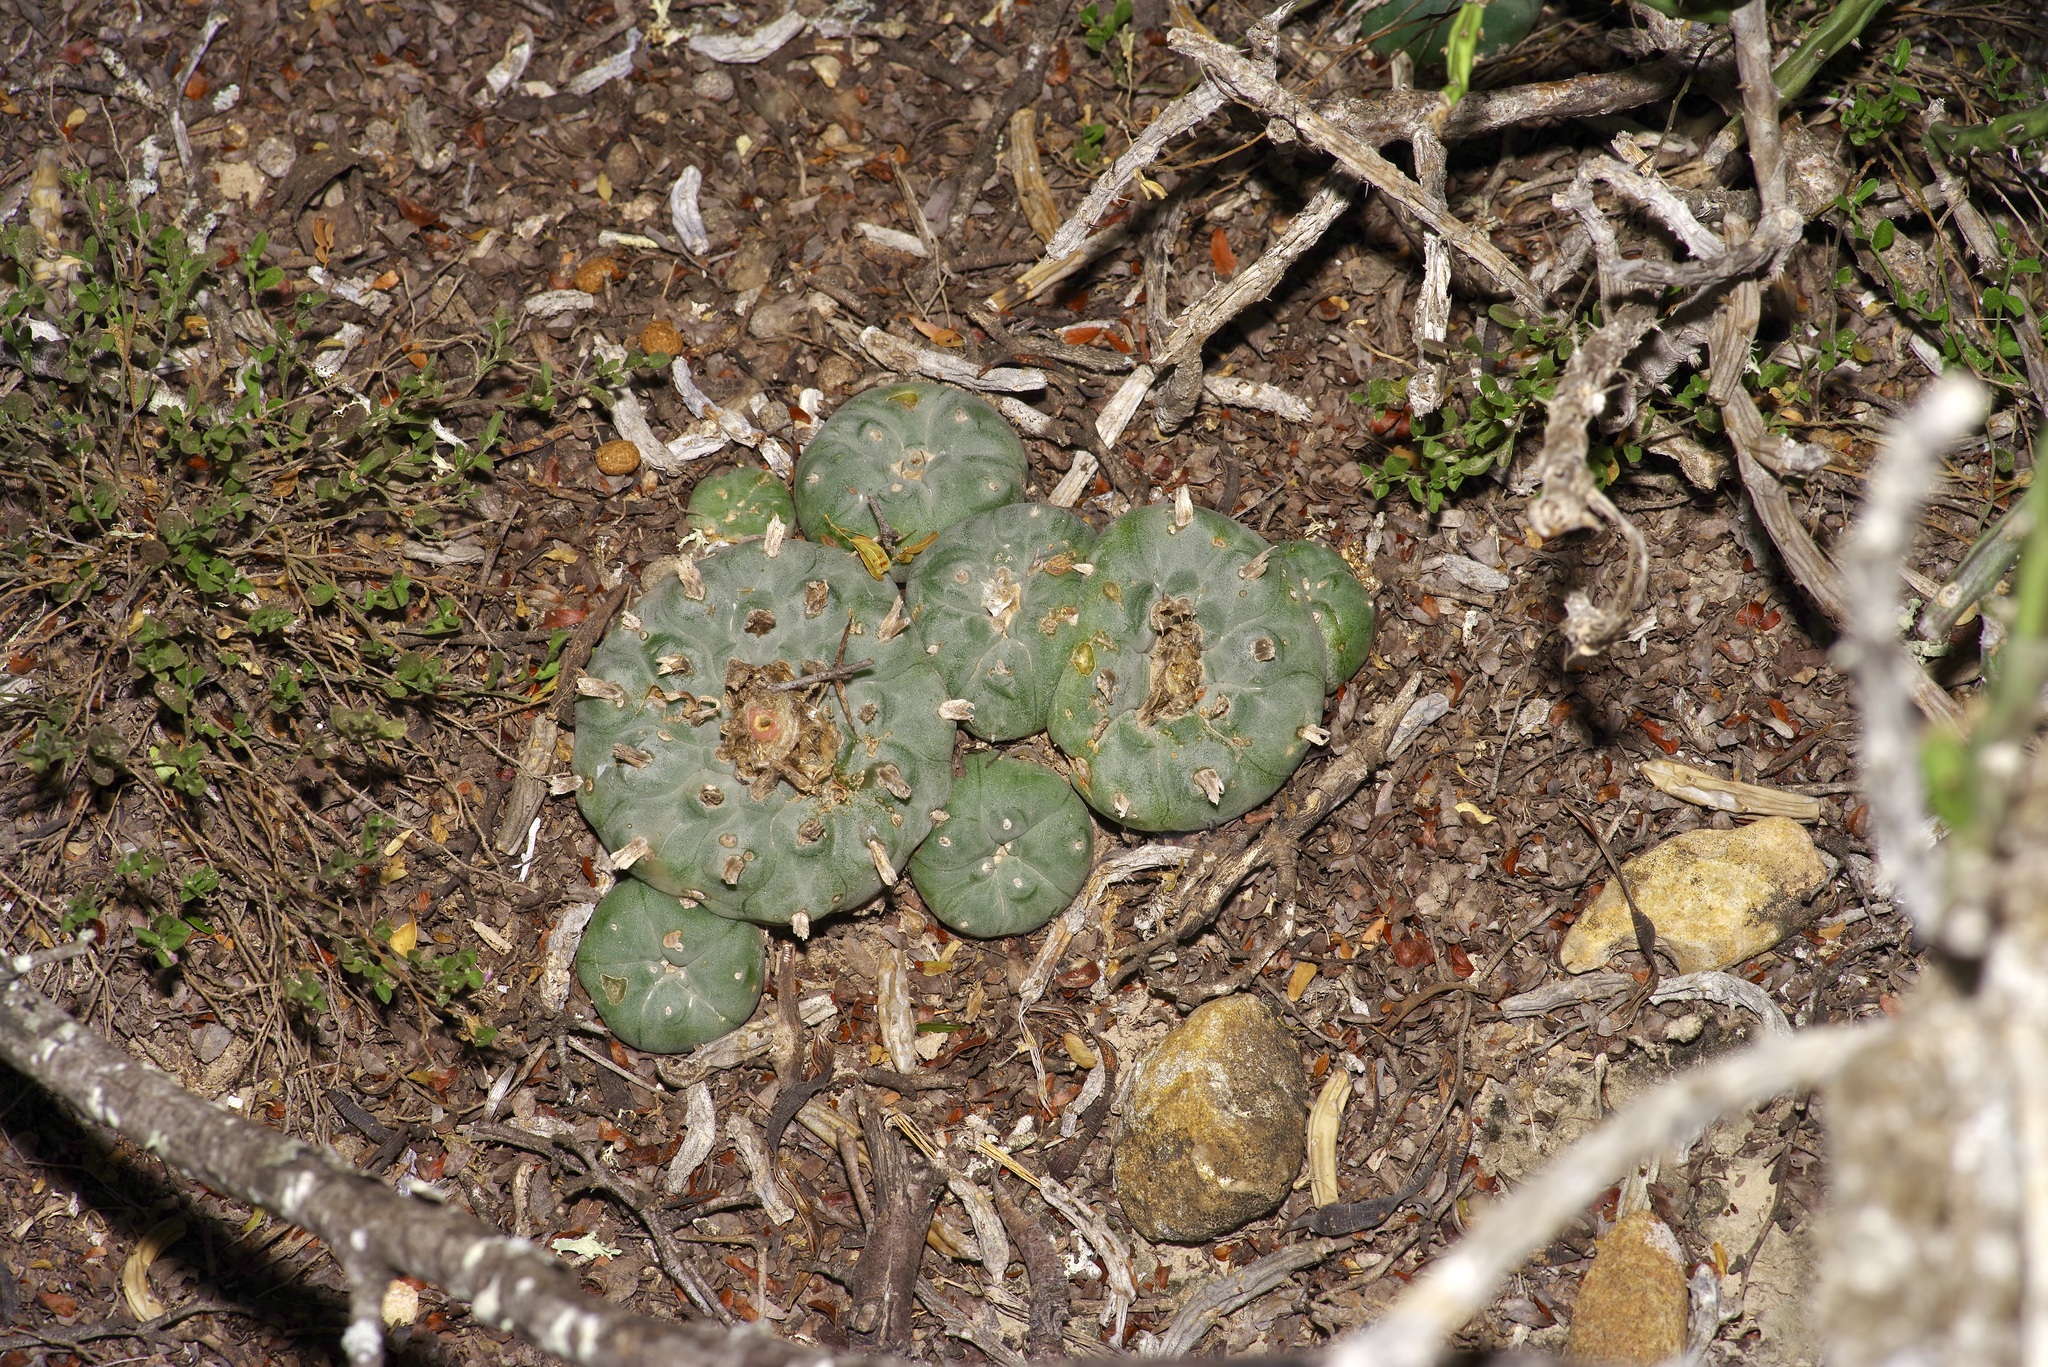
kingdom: Plantae
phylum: Tracheophyta
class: Magnoliopsida
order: Caryophyllales
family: Cactaceae
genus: Lophophora
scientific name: Lophophora williamsii
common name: Indian-dope
